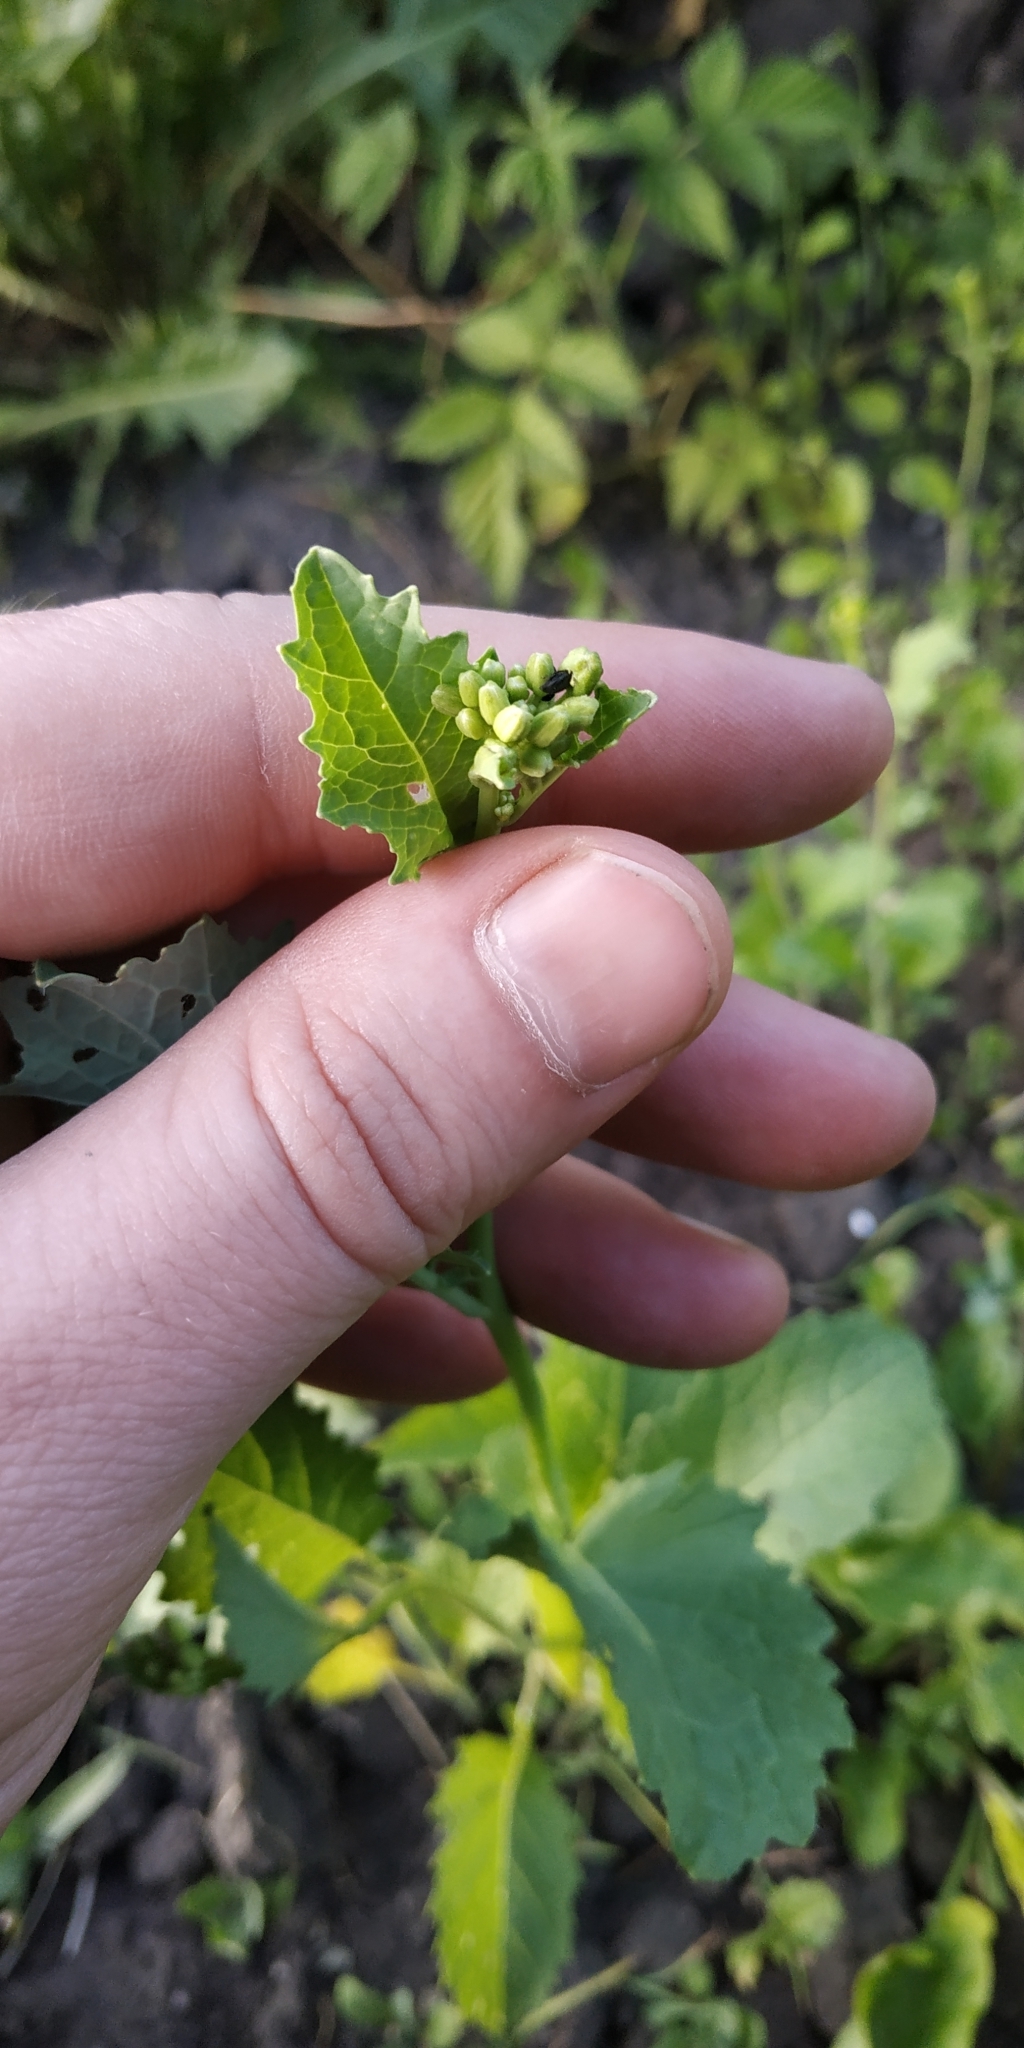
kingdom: Plantae
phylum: Tracheophyta
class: Magnoliopsida
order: Brassicales
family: Brassicaceae
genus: Raphanus
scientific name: Raphanus raphanistrum
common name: Wild radish
